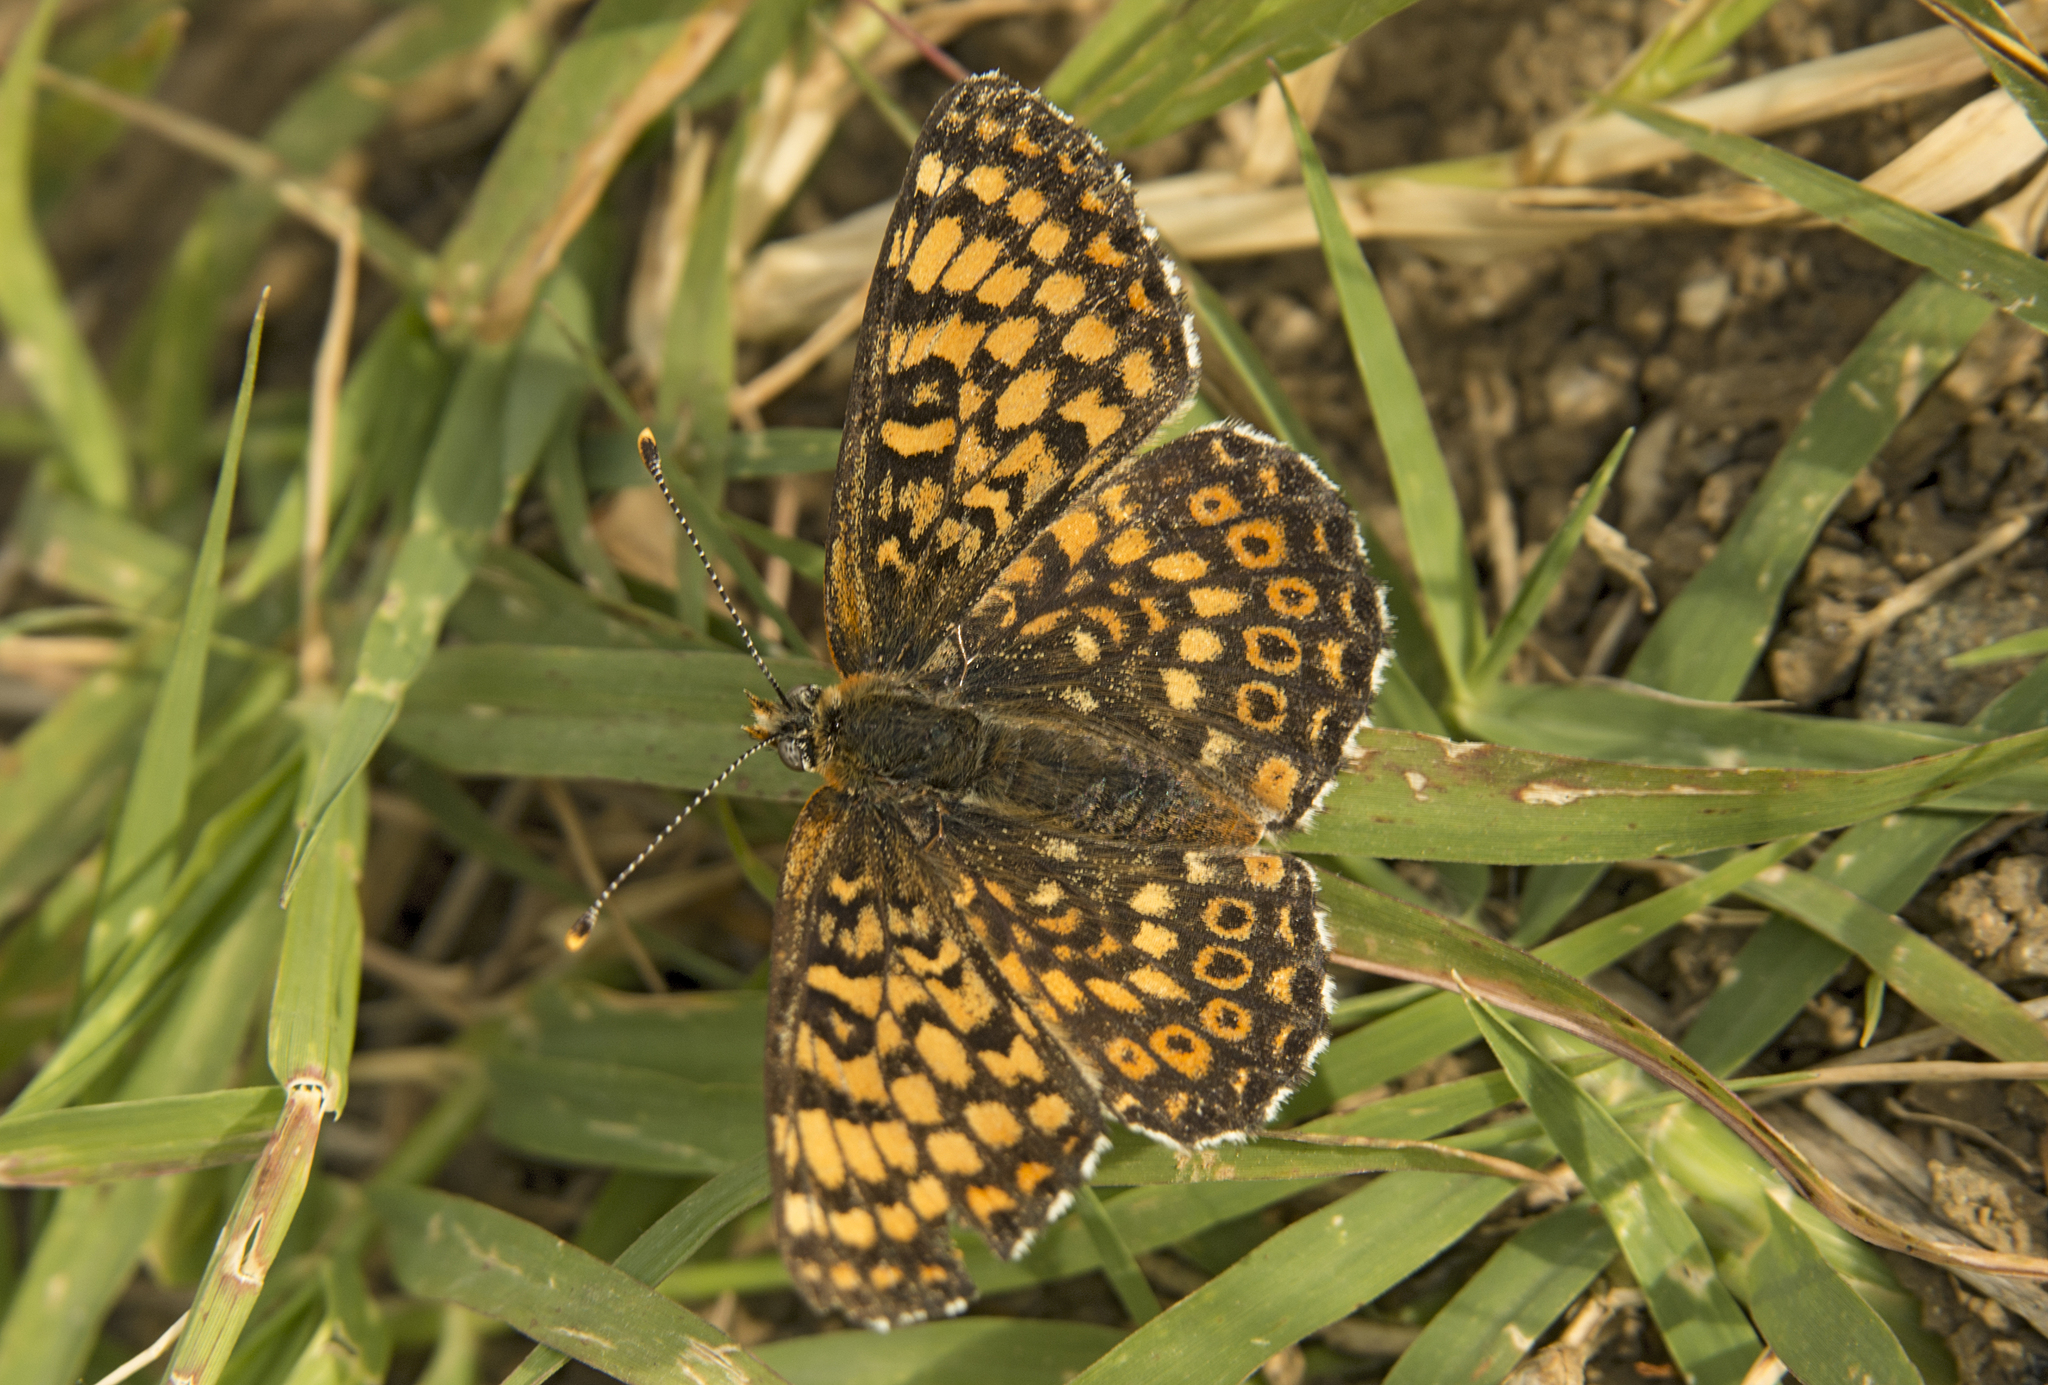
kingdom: Animalia
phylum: Arthropoda
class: Insecta
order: Lepidoptera
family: Nymphalidae
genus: Melitaea
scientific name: Melitaea cinxia
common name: Glanville fritillary
